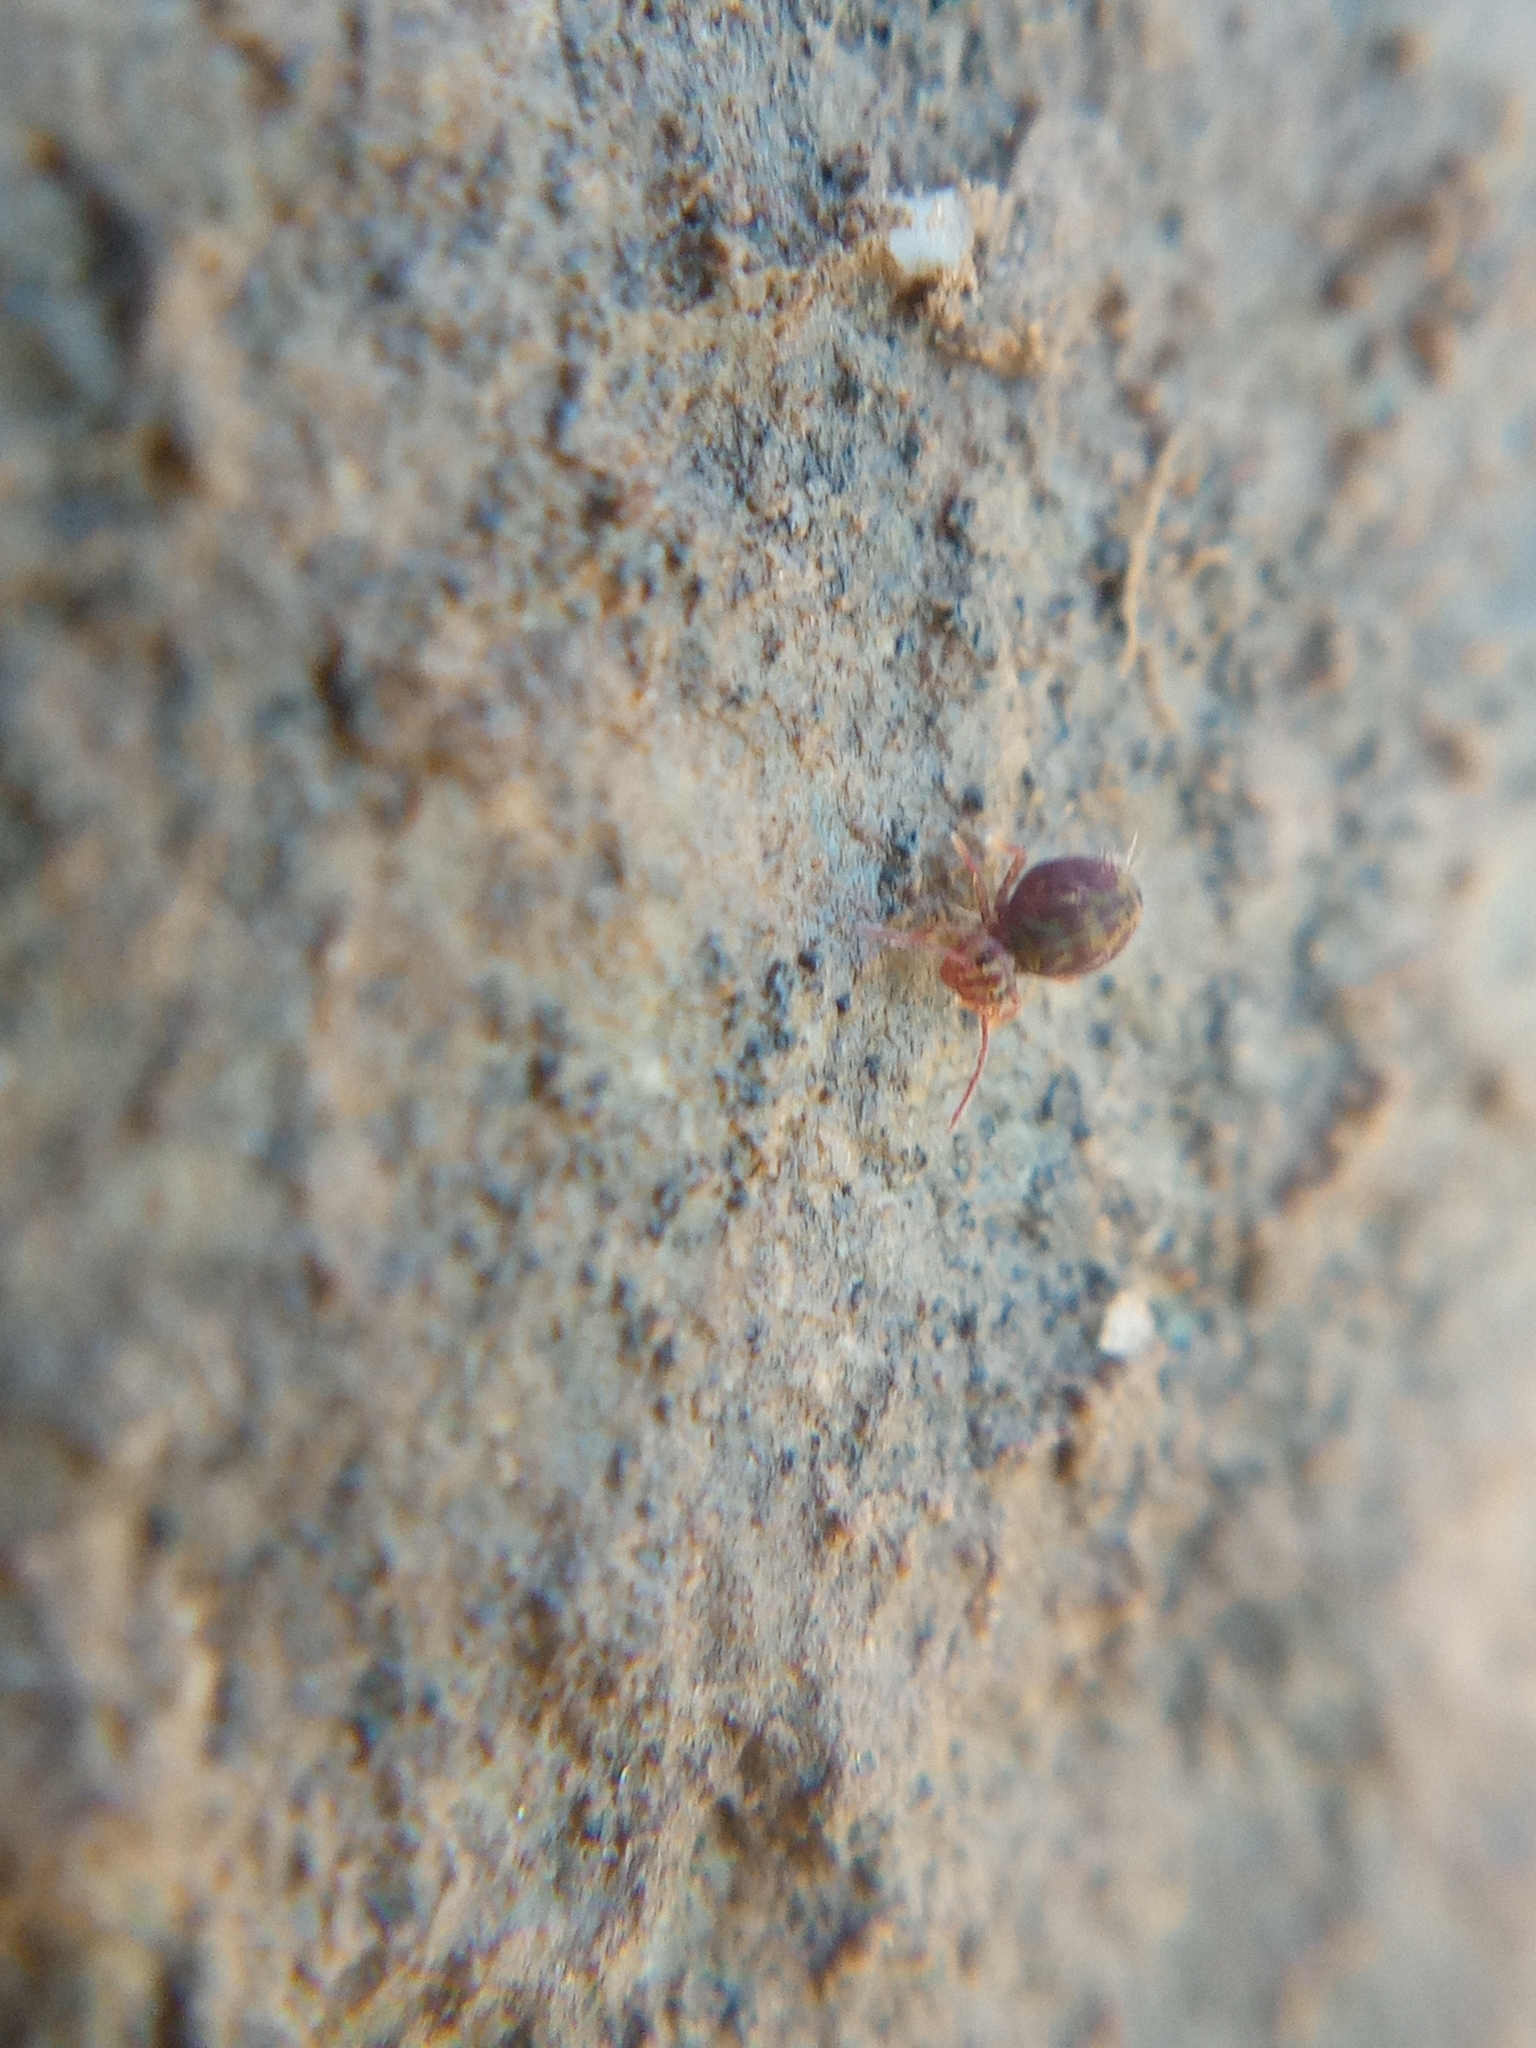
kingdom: Animalia
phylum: Arthropoda
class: Collembola
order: Symphypleona
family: Dicyrtomidae
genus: Dicyrtomina
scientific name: Dicyrtomina ornata
